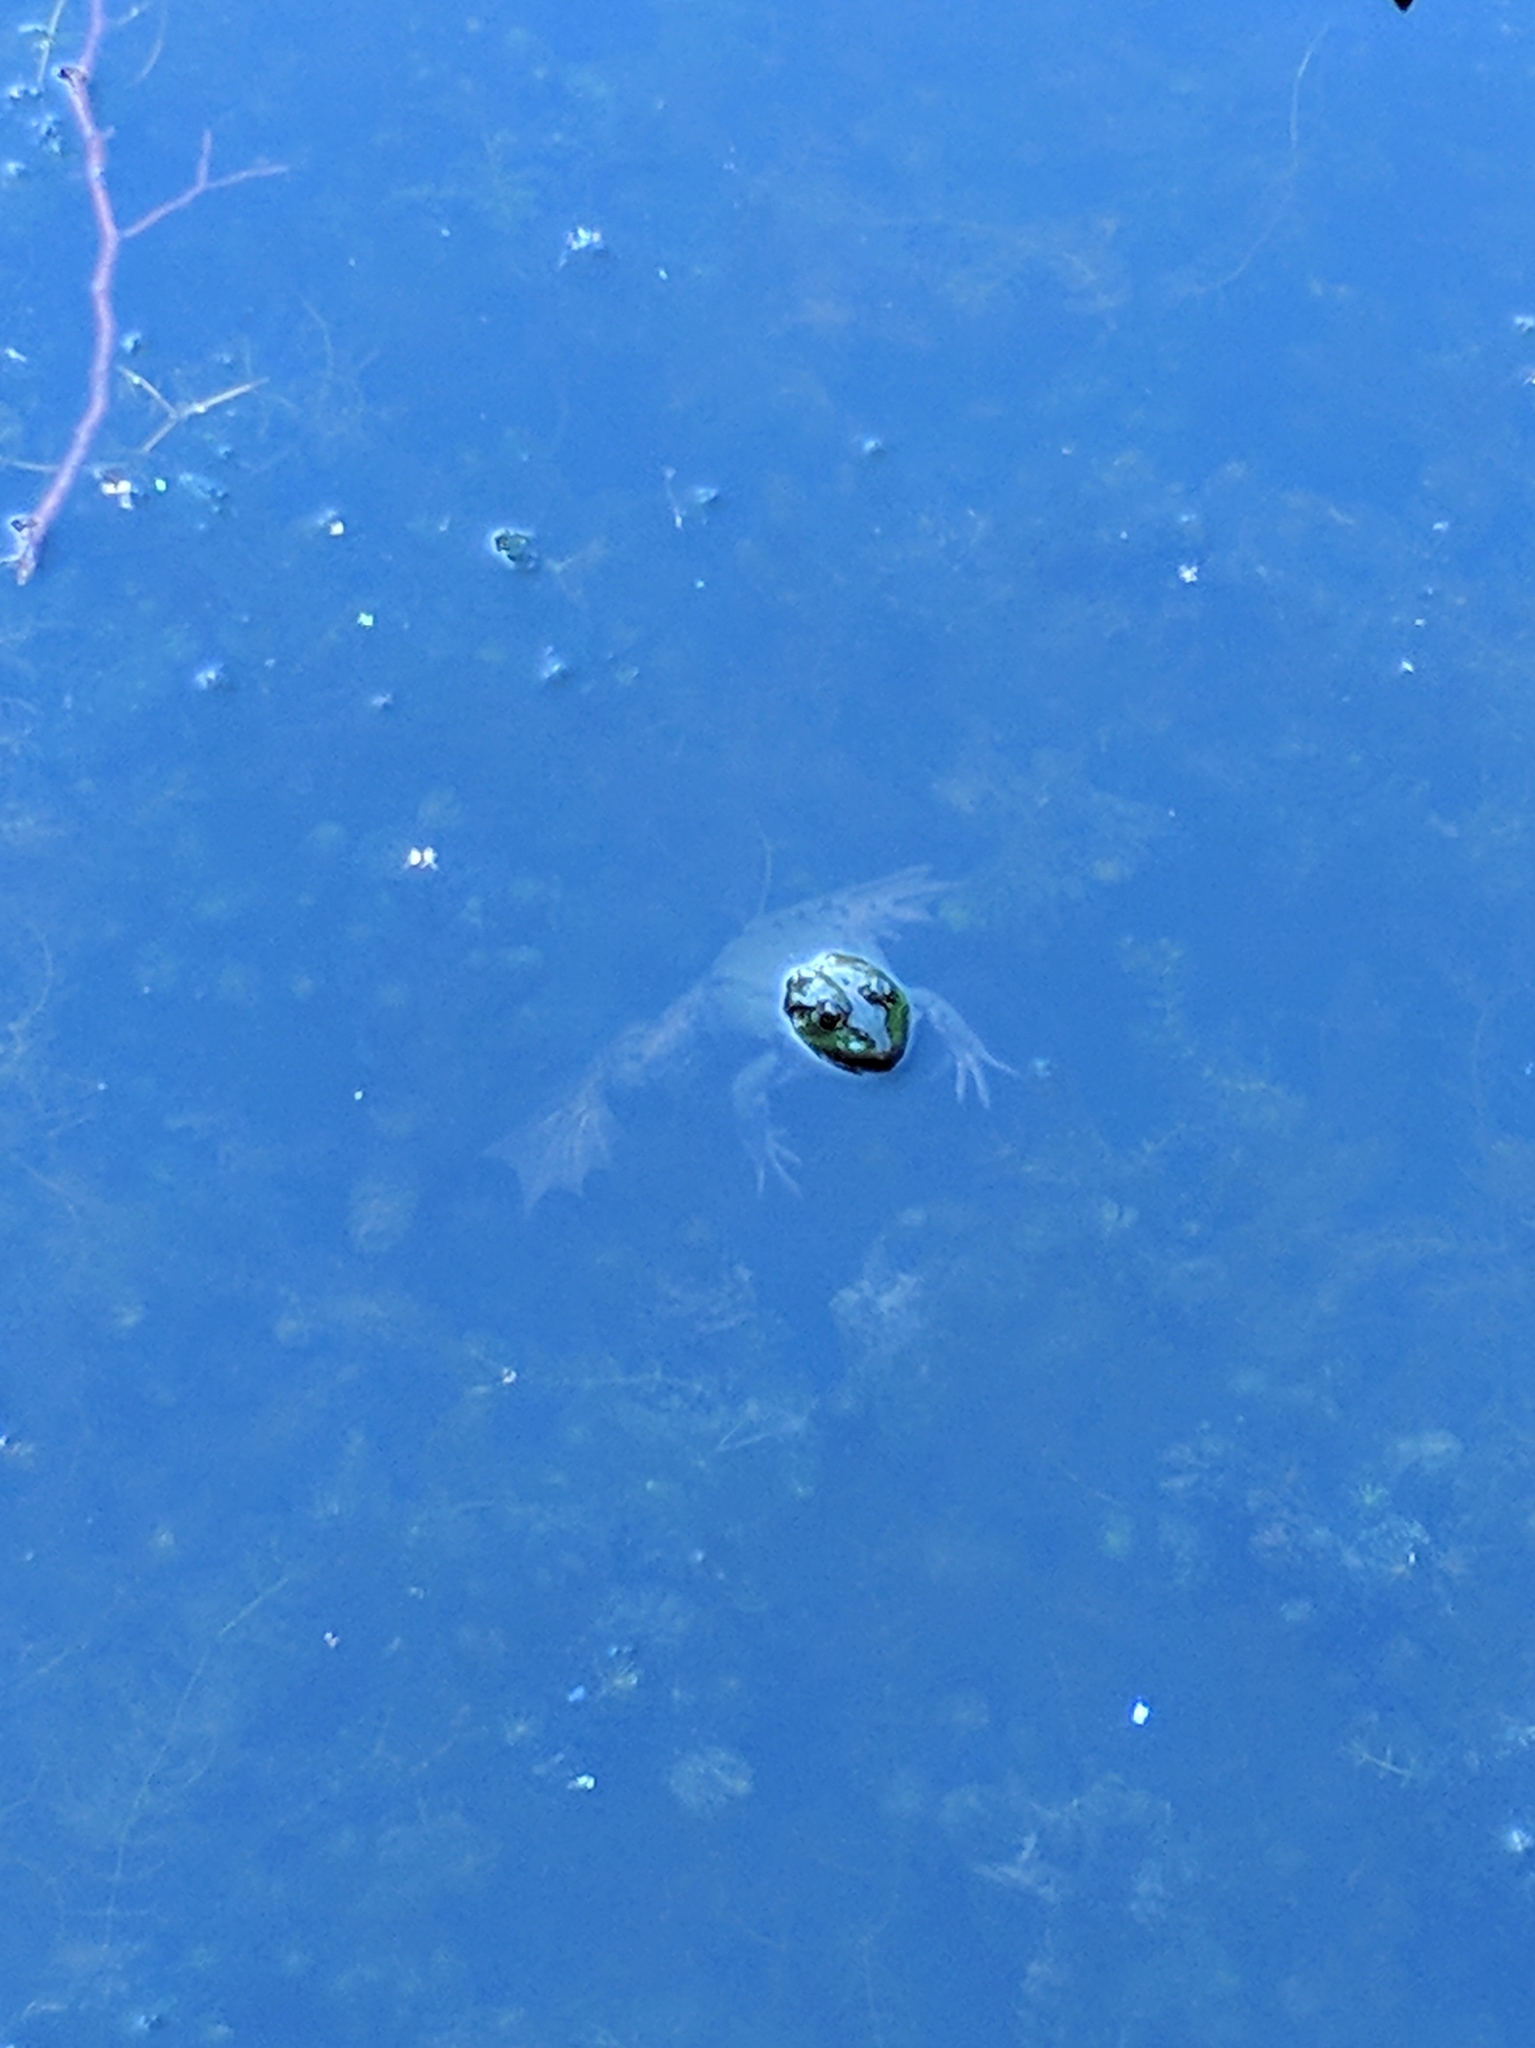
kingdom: Animalia
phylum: Chordata
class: Amphibia
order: Anura
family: Ranidae
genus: Pelophylax
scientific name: Pelophylax lessonae
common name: Pool frog
